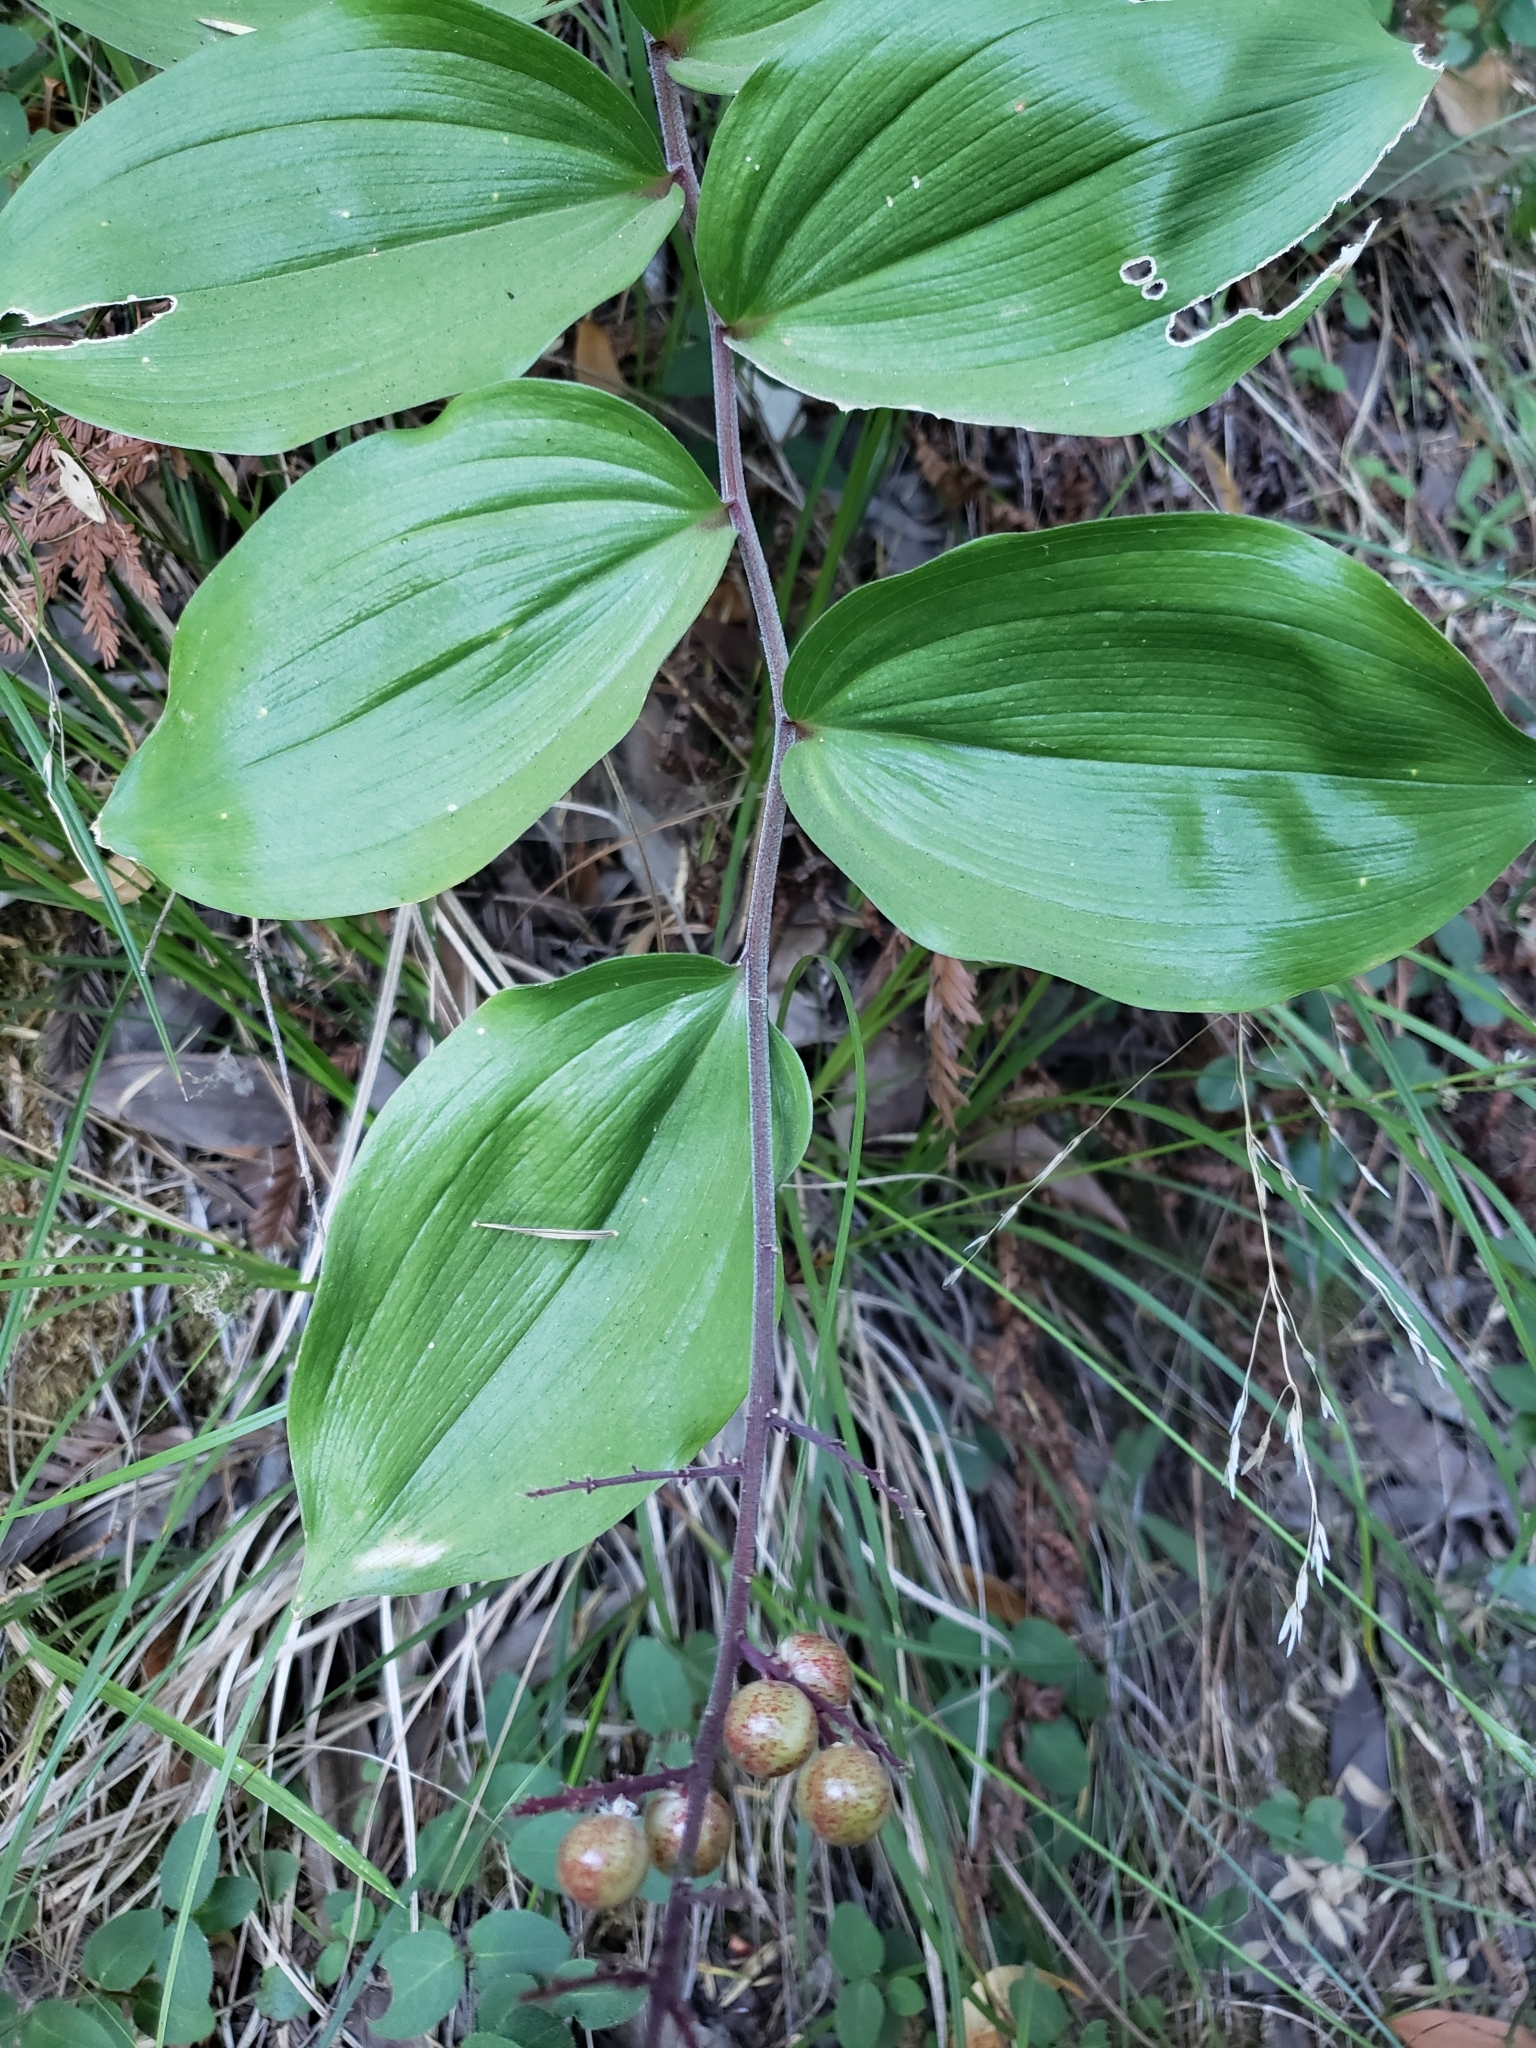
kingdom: Plantae
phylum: Tracheophyta
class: Liliopsida
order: Asparagales
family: Asparagaceae
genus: Maianthemum
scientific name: Maianthemum racemosum
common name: False spikenard
